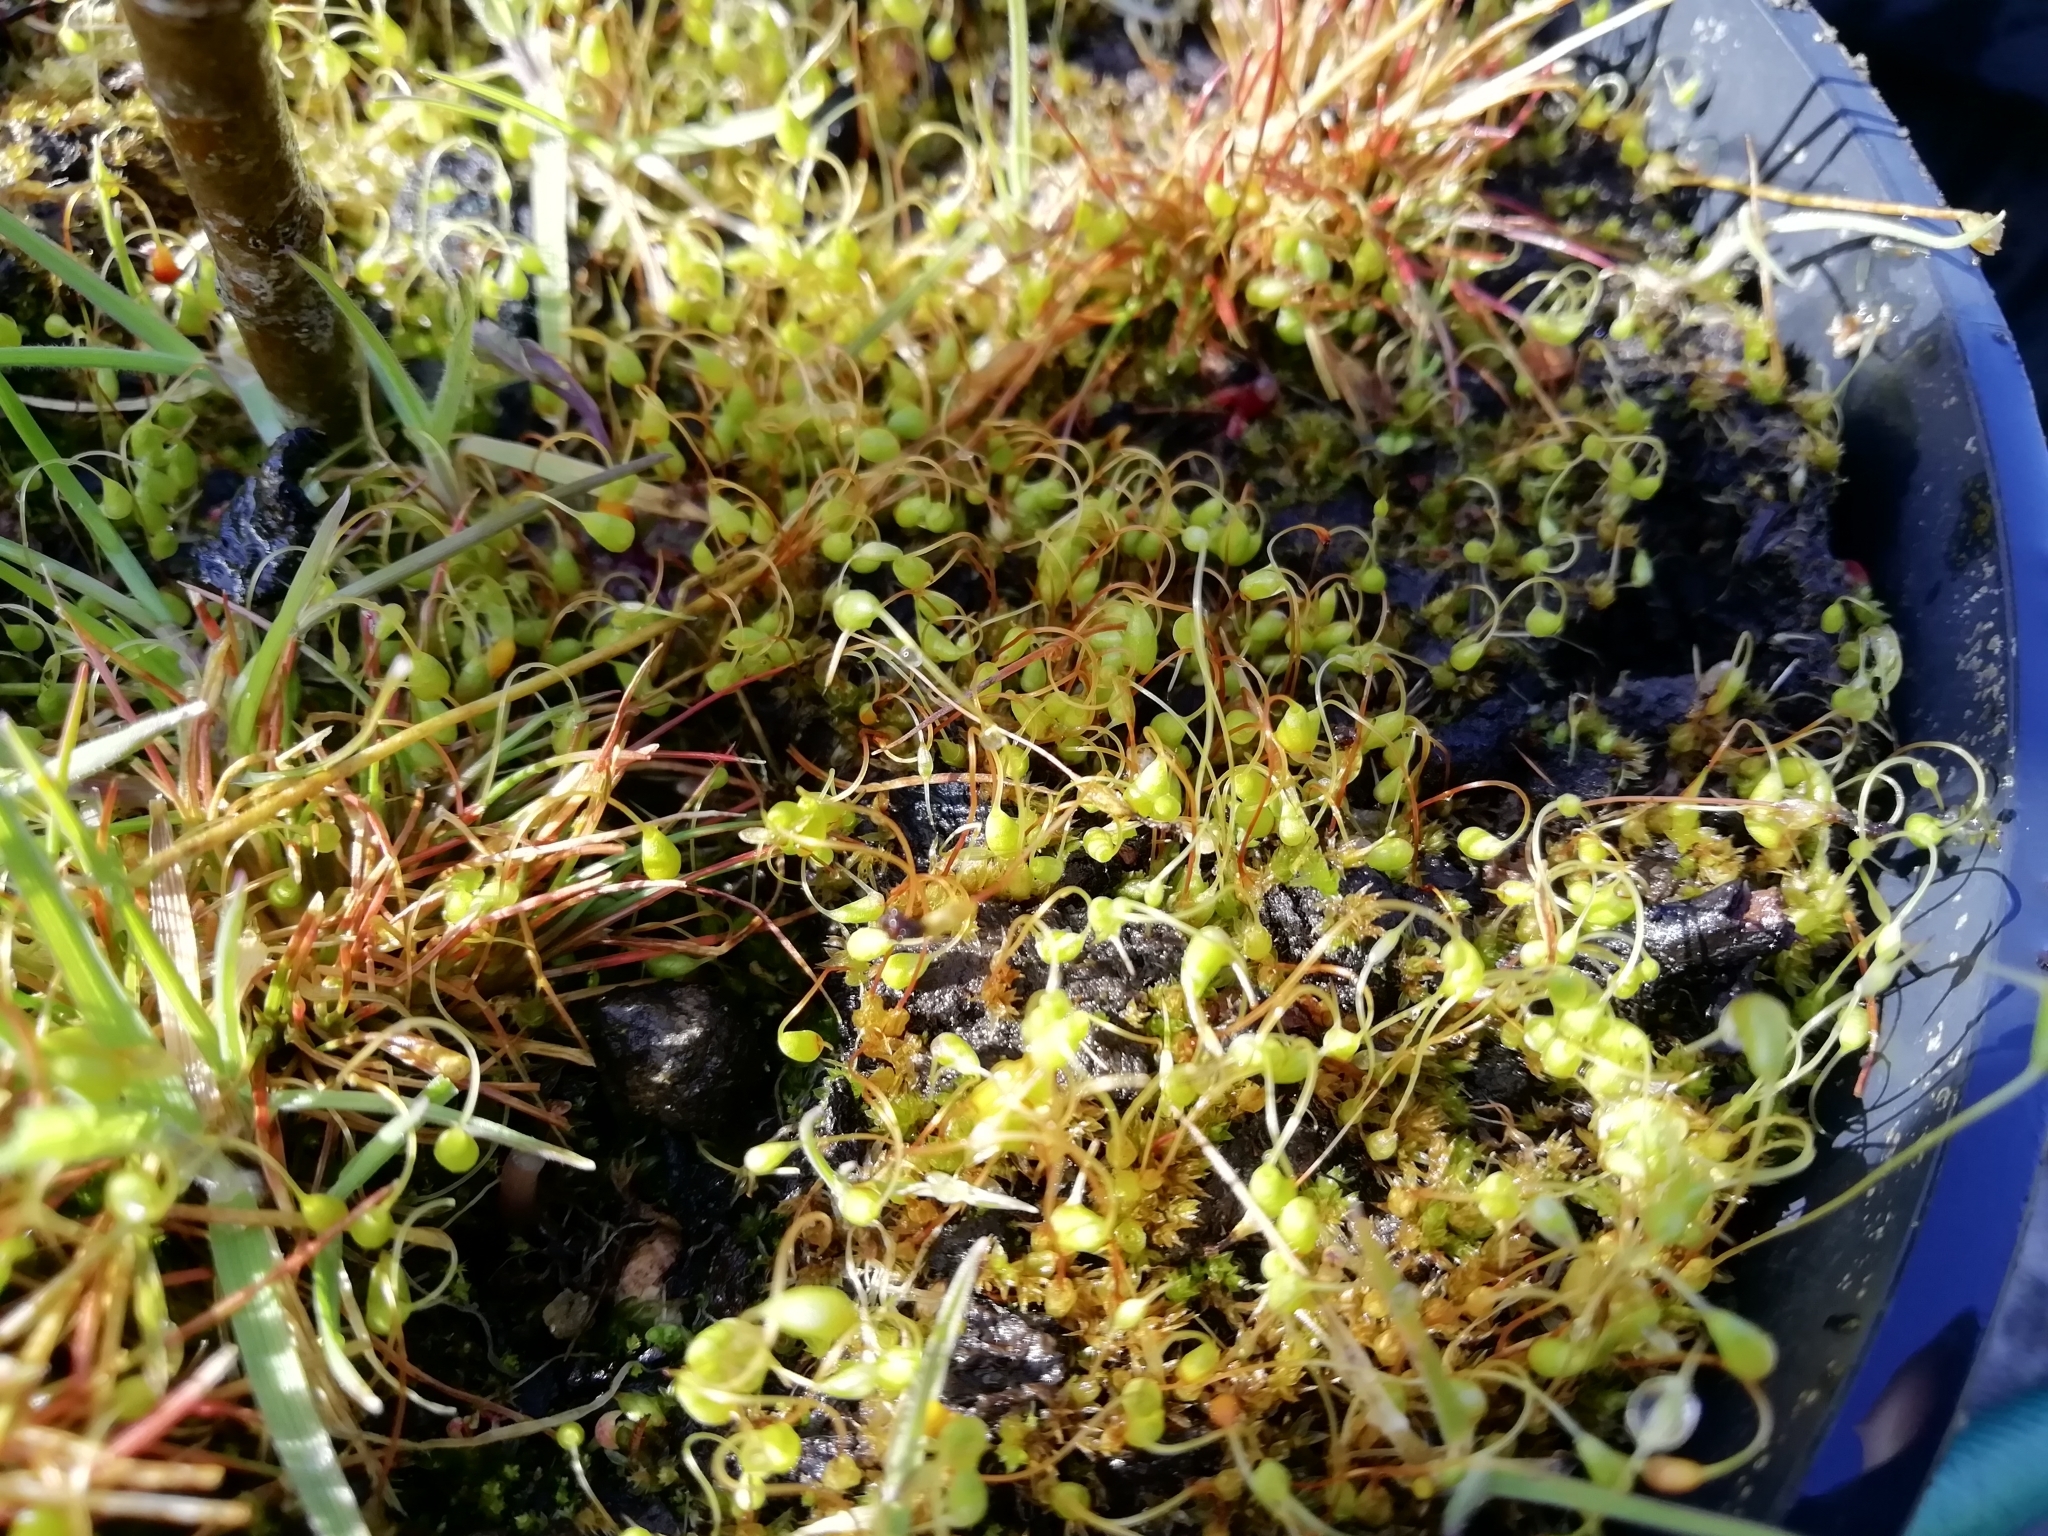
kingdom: Plantae
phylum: Bryophyta
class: Bryopsida
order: Funariales
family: Funariaceae
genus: Funaria
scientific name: Funaria hygrometrica
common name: Common cord moss
